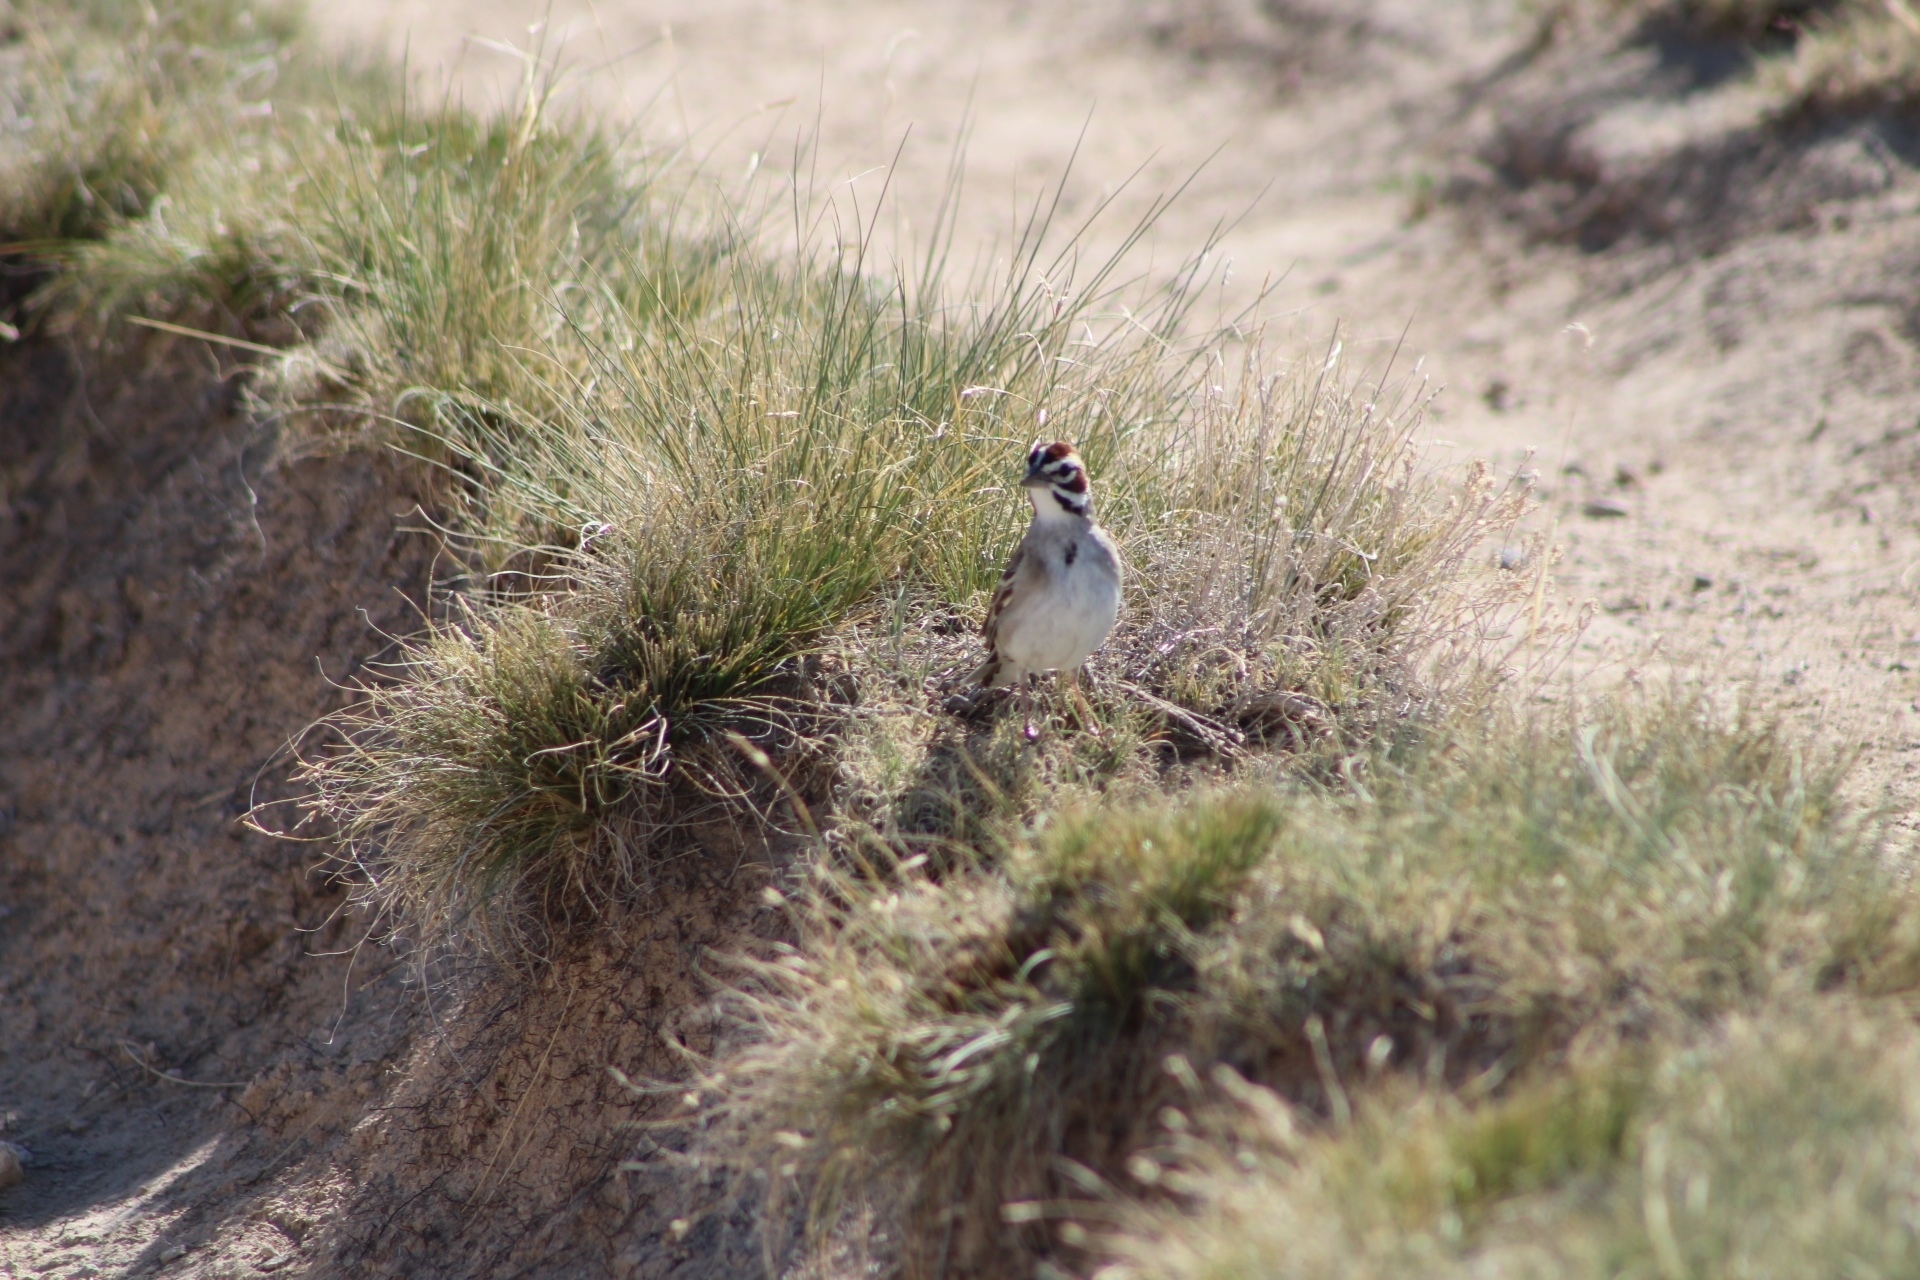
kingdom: Animalia
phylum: Chordata
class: Aves
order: Passeriformes
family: Passerellidae
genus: Chondestes
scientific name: Chondestes grammacus
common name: Lark sparrow
